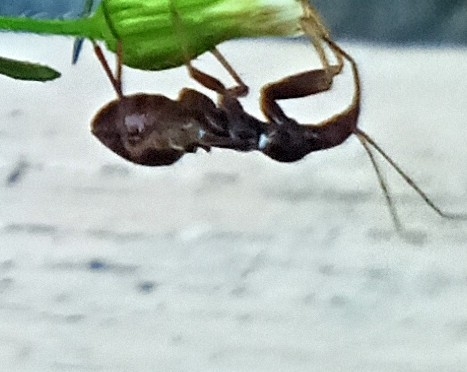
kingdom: Animalia
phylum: Arthropoda
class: Insecta
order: Hemiptera
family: Nabidae
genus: Himacerus
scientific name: Himacerus mirmicoides
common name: Ant damsel bug
